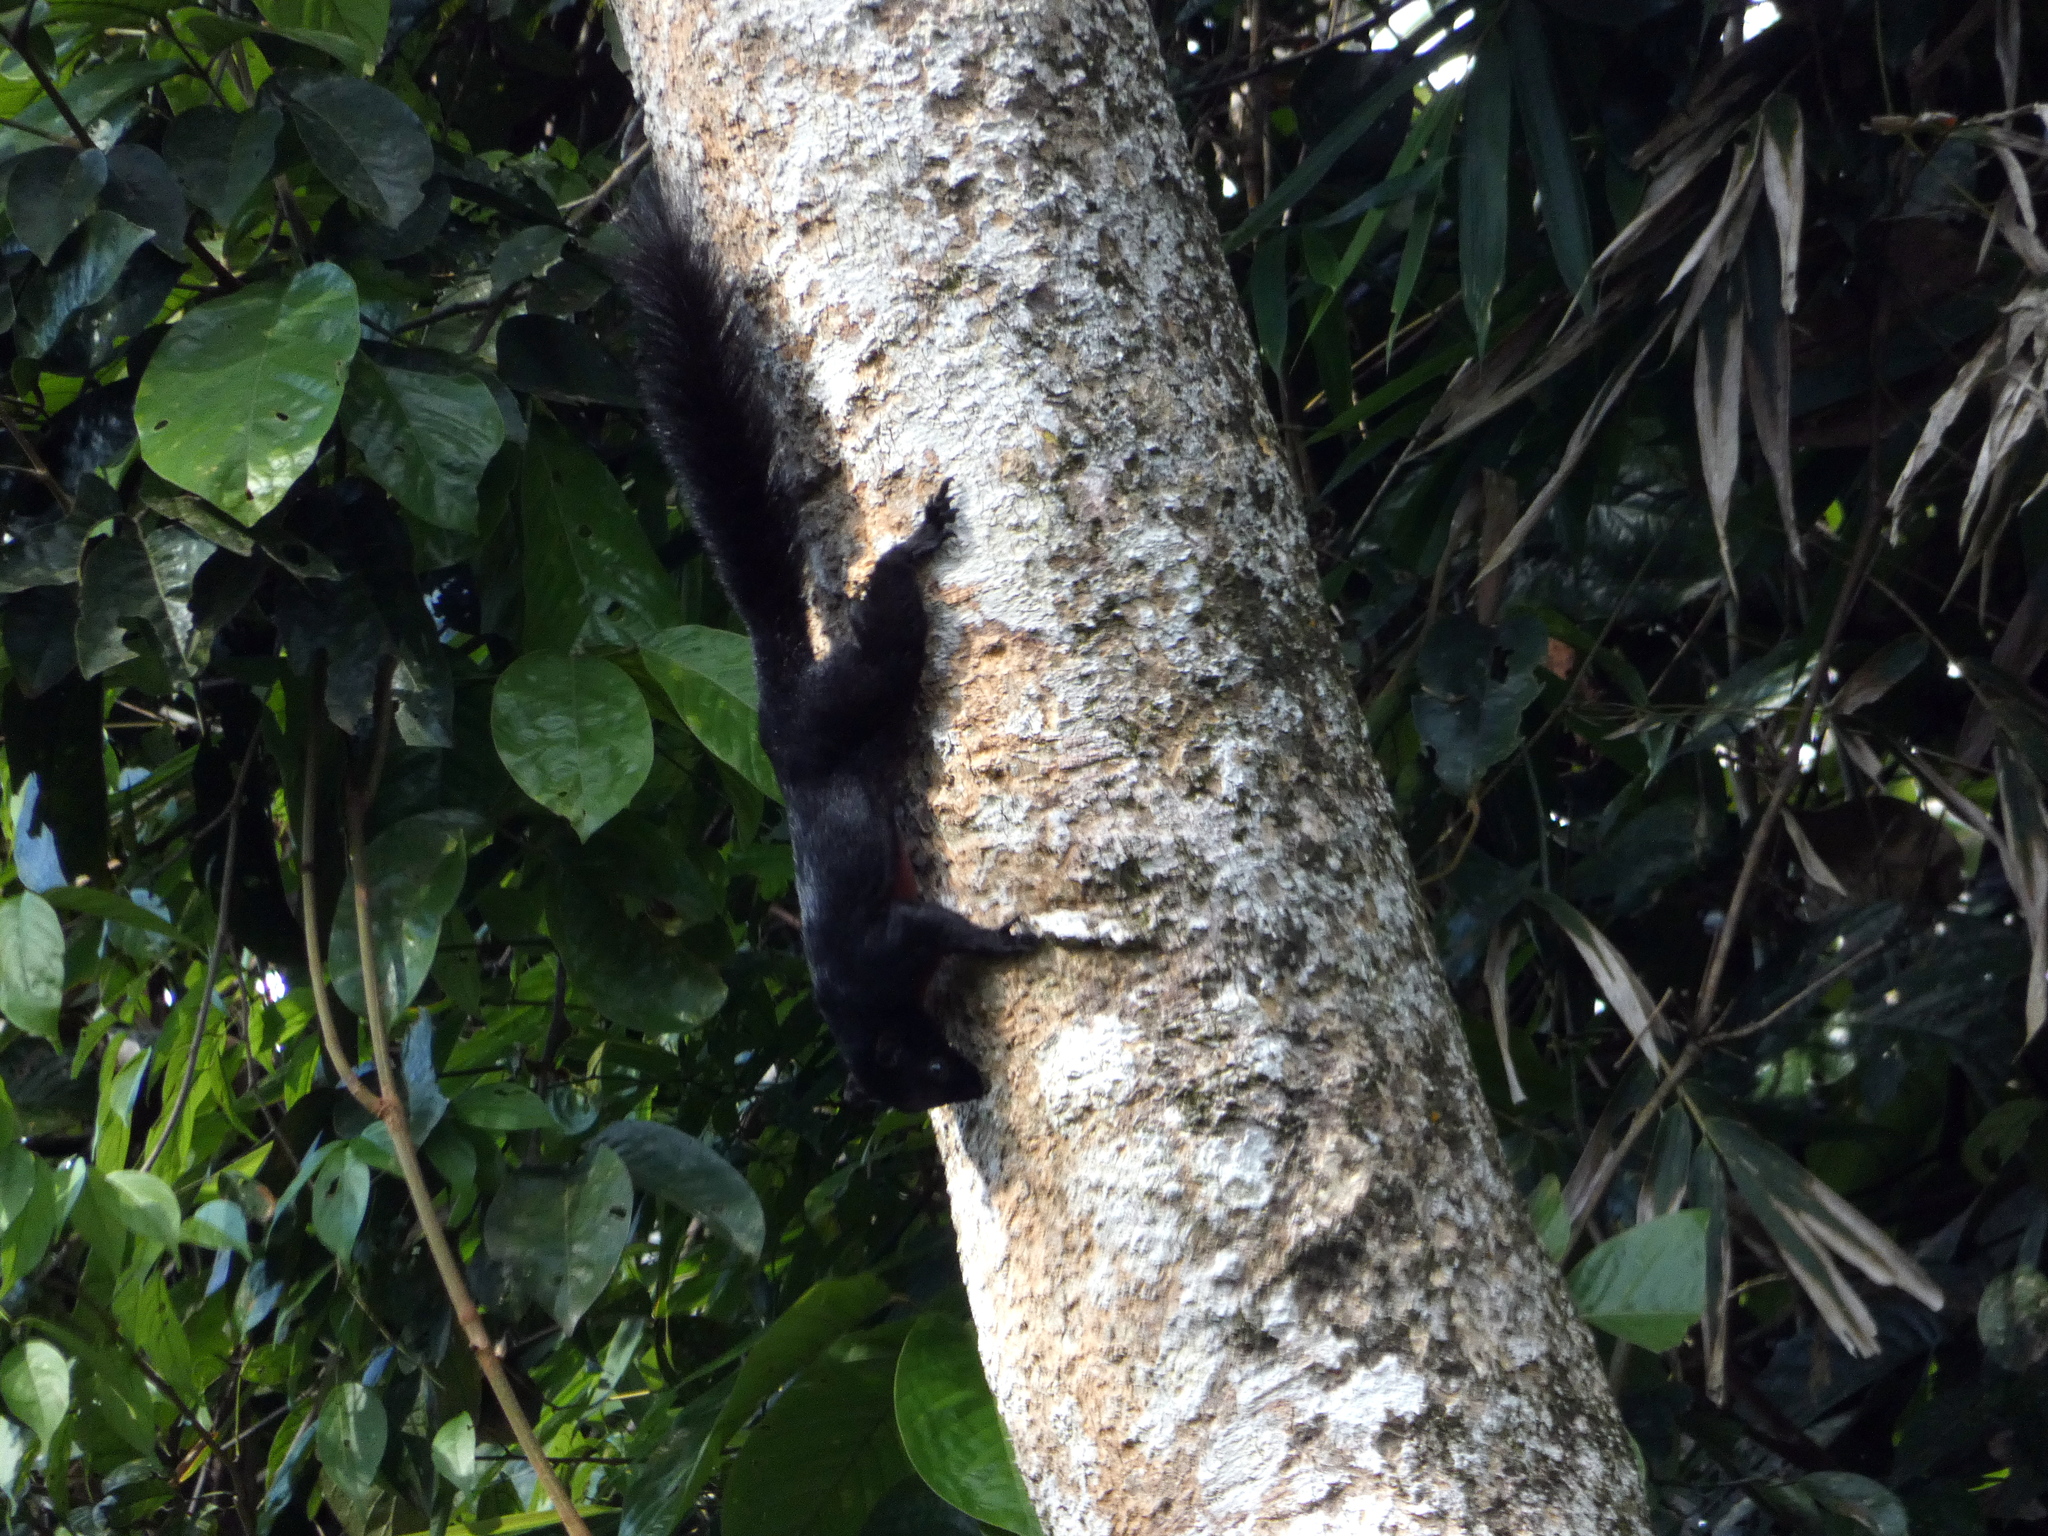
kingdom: Animalia
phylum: Chordata
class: Mammalia
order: Rodentia
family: Sciuridae
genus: Callosciurus
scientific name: Callosciurus prevostii
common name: Prevost's squirrel
